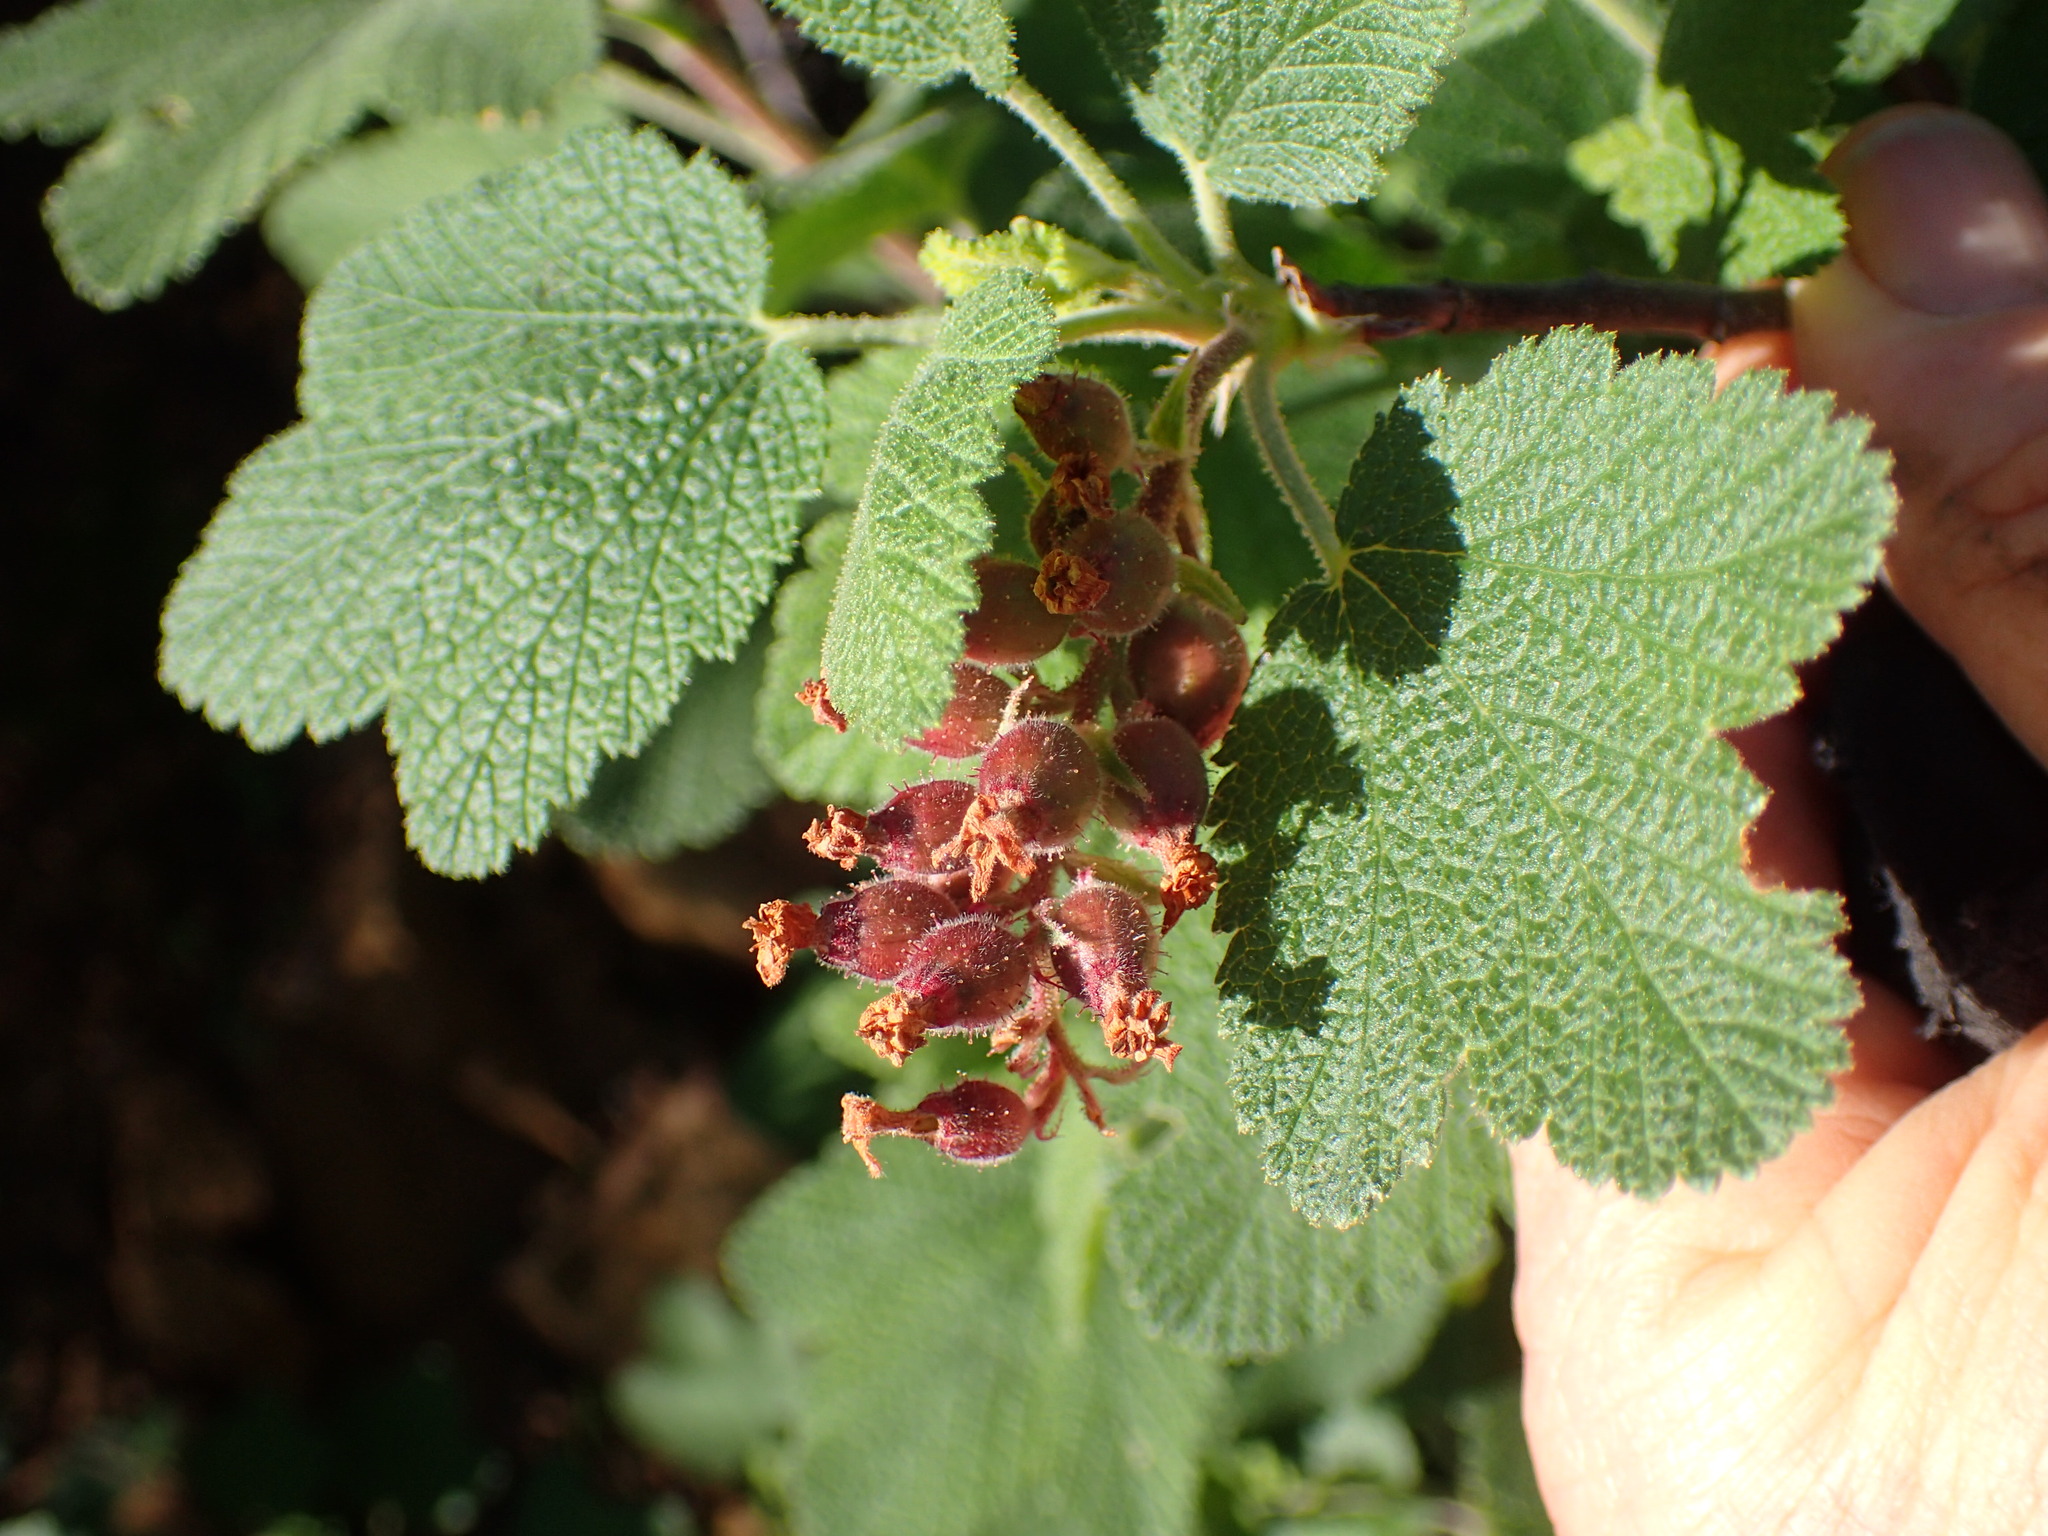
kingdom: Plantae
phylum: Tracheophyta
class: Magnoliopsida
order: Saxifragales
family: Grossulariaceae
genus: Ribes
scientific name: Ribes malvaceum
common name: Chaparral currant
